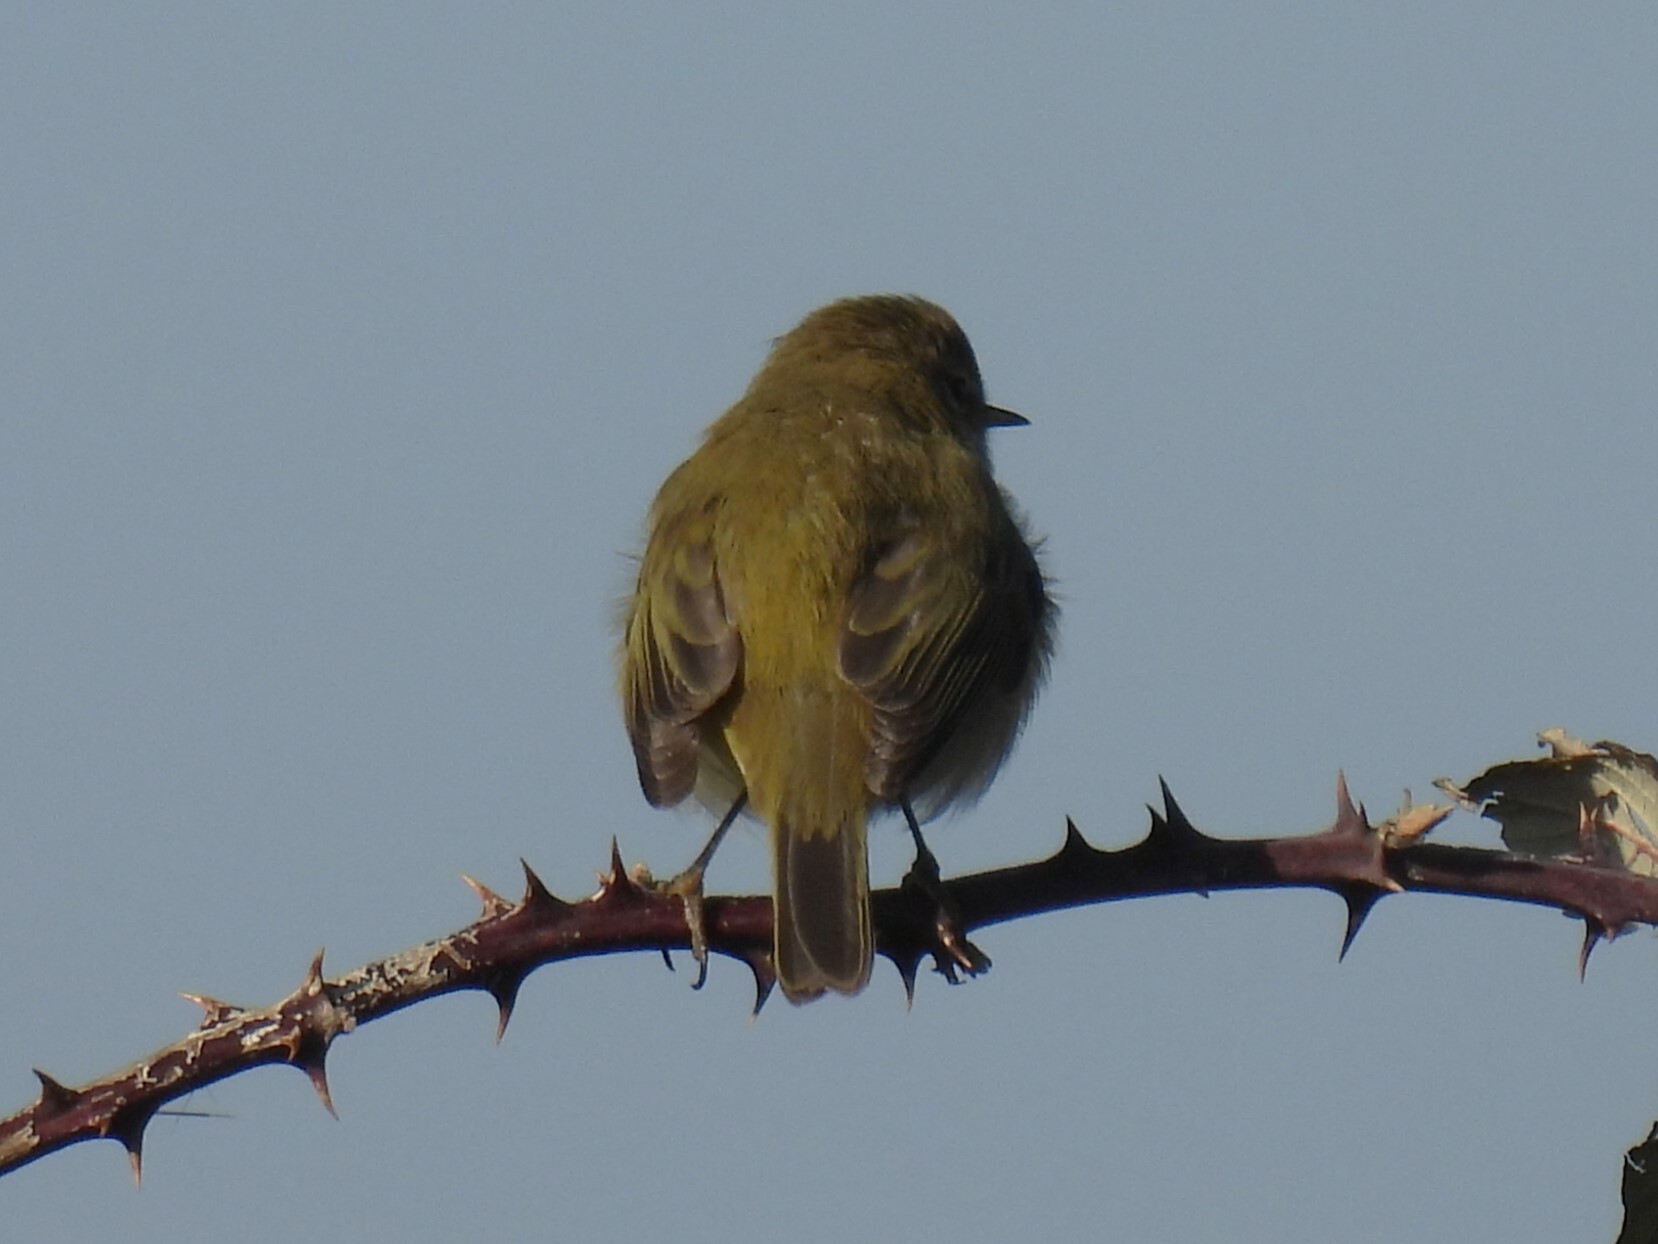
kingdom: Animalia
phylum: Chordata
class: Aves
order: Passeriformes
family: Phylloscopidae
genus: Phylloscopus
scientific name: Phylloscopus collybita
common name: Common chiffchaff
